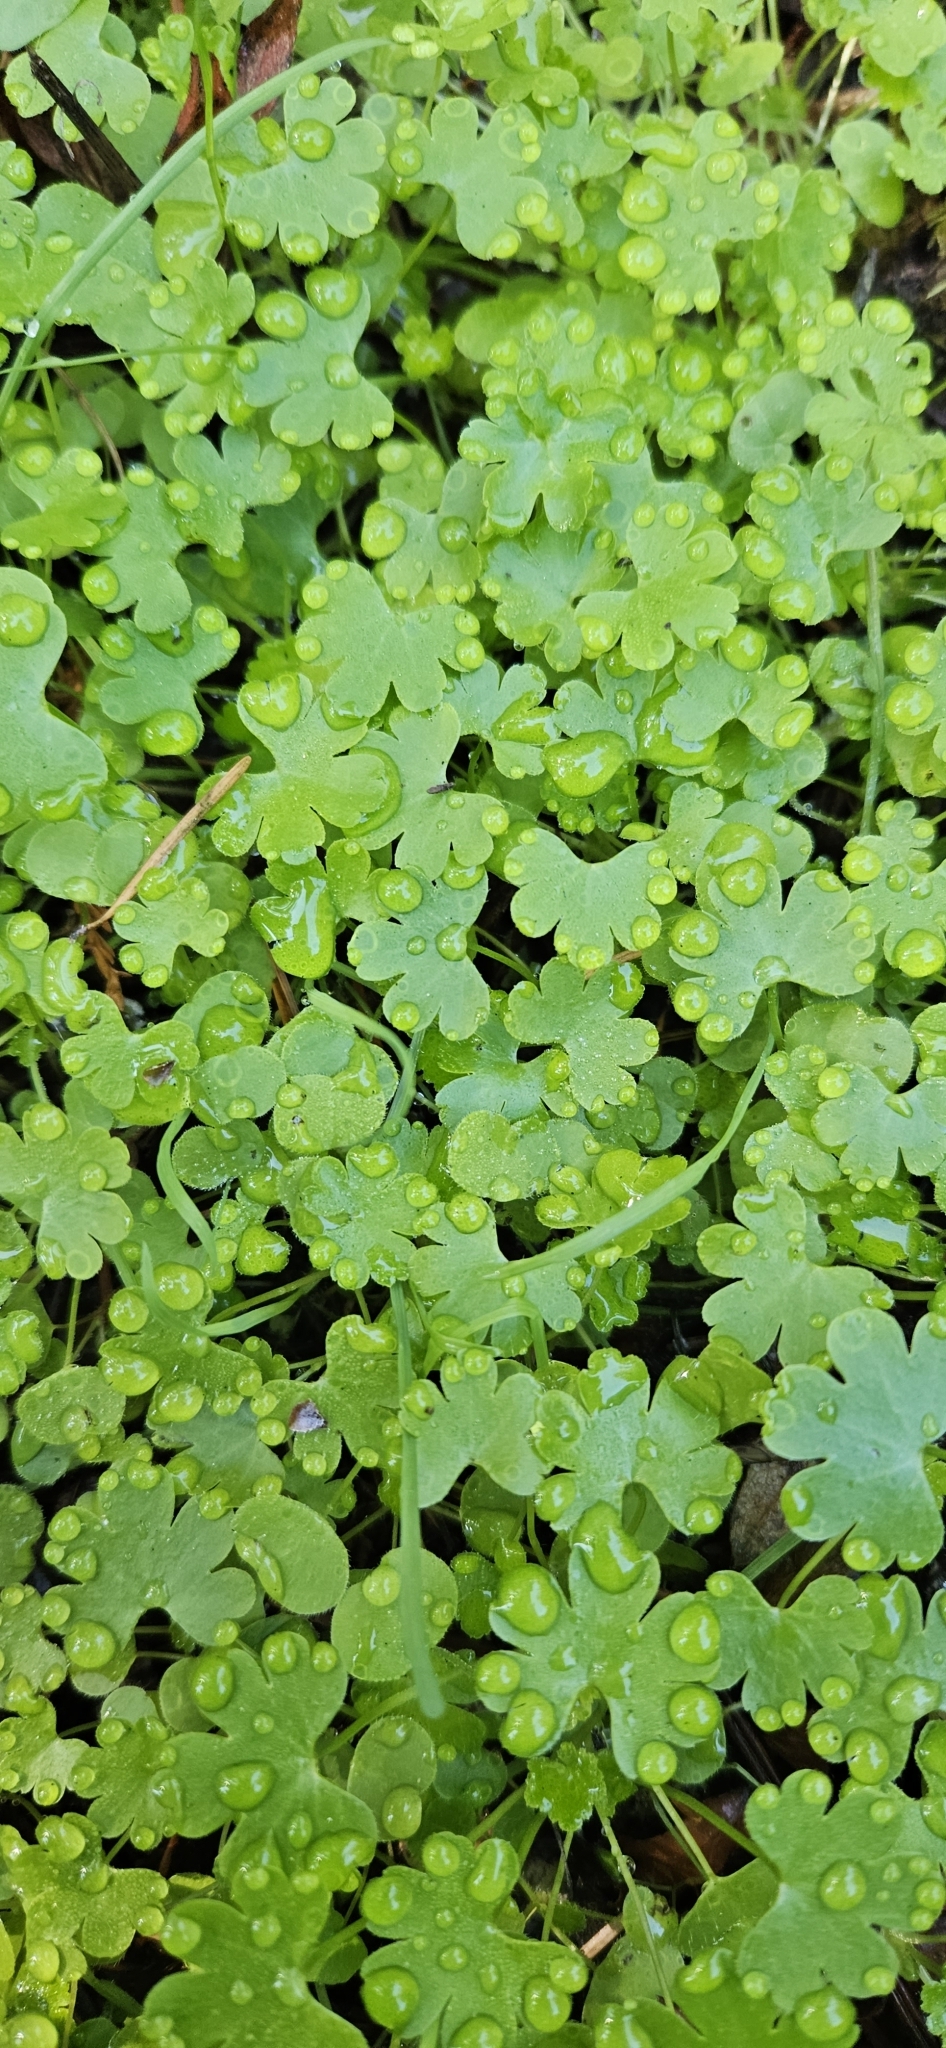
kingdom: Plantae
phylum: Tracheophyta
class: Magnoliopsida
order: Geraniales
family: Geraniaceae
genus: Geranium
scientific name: Geranium lucidum
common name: Shining crane's-bill
